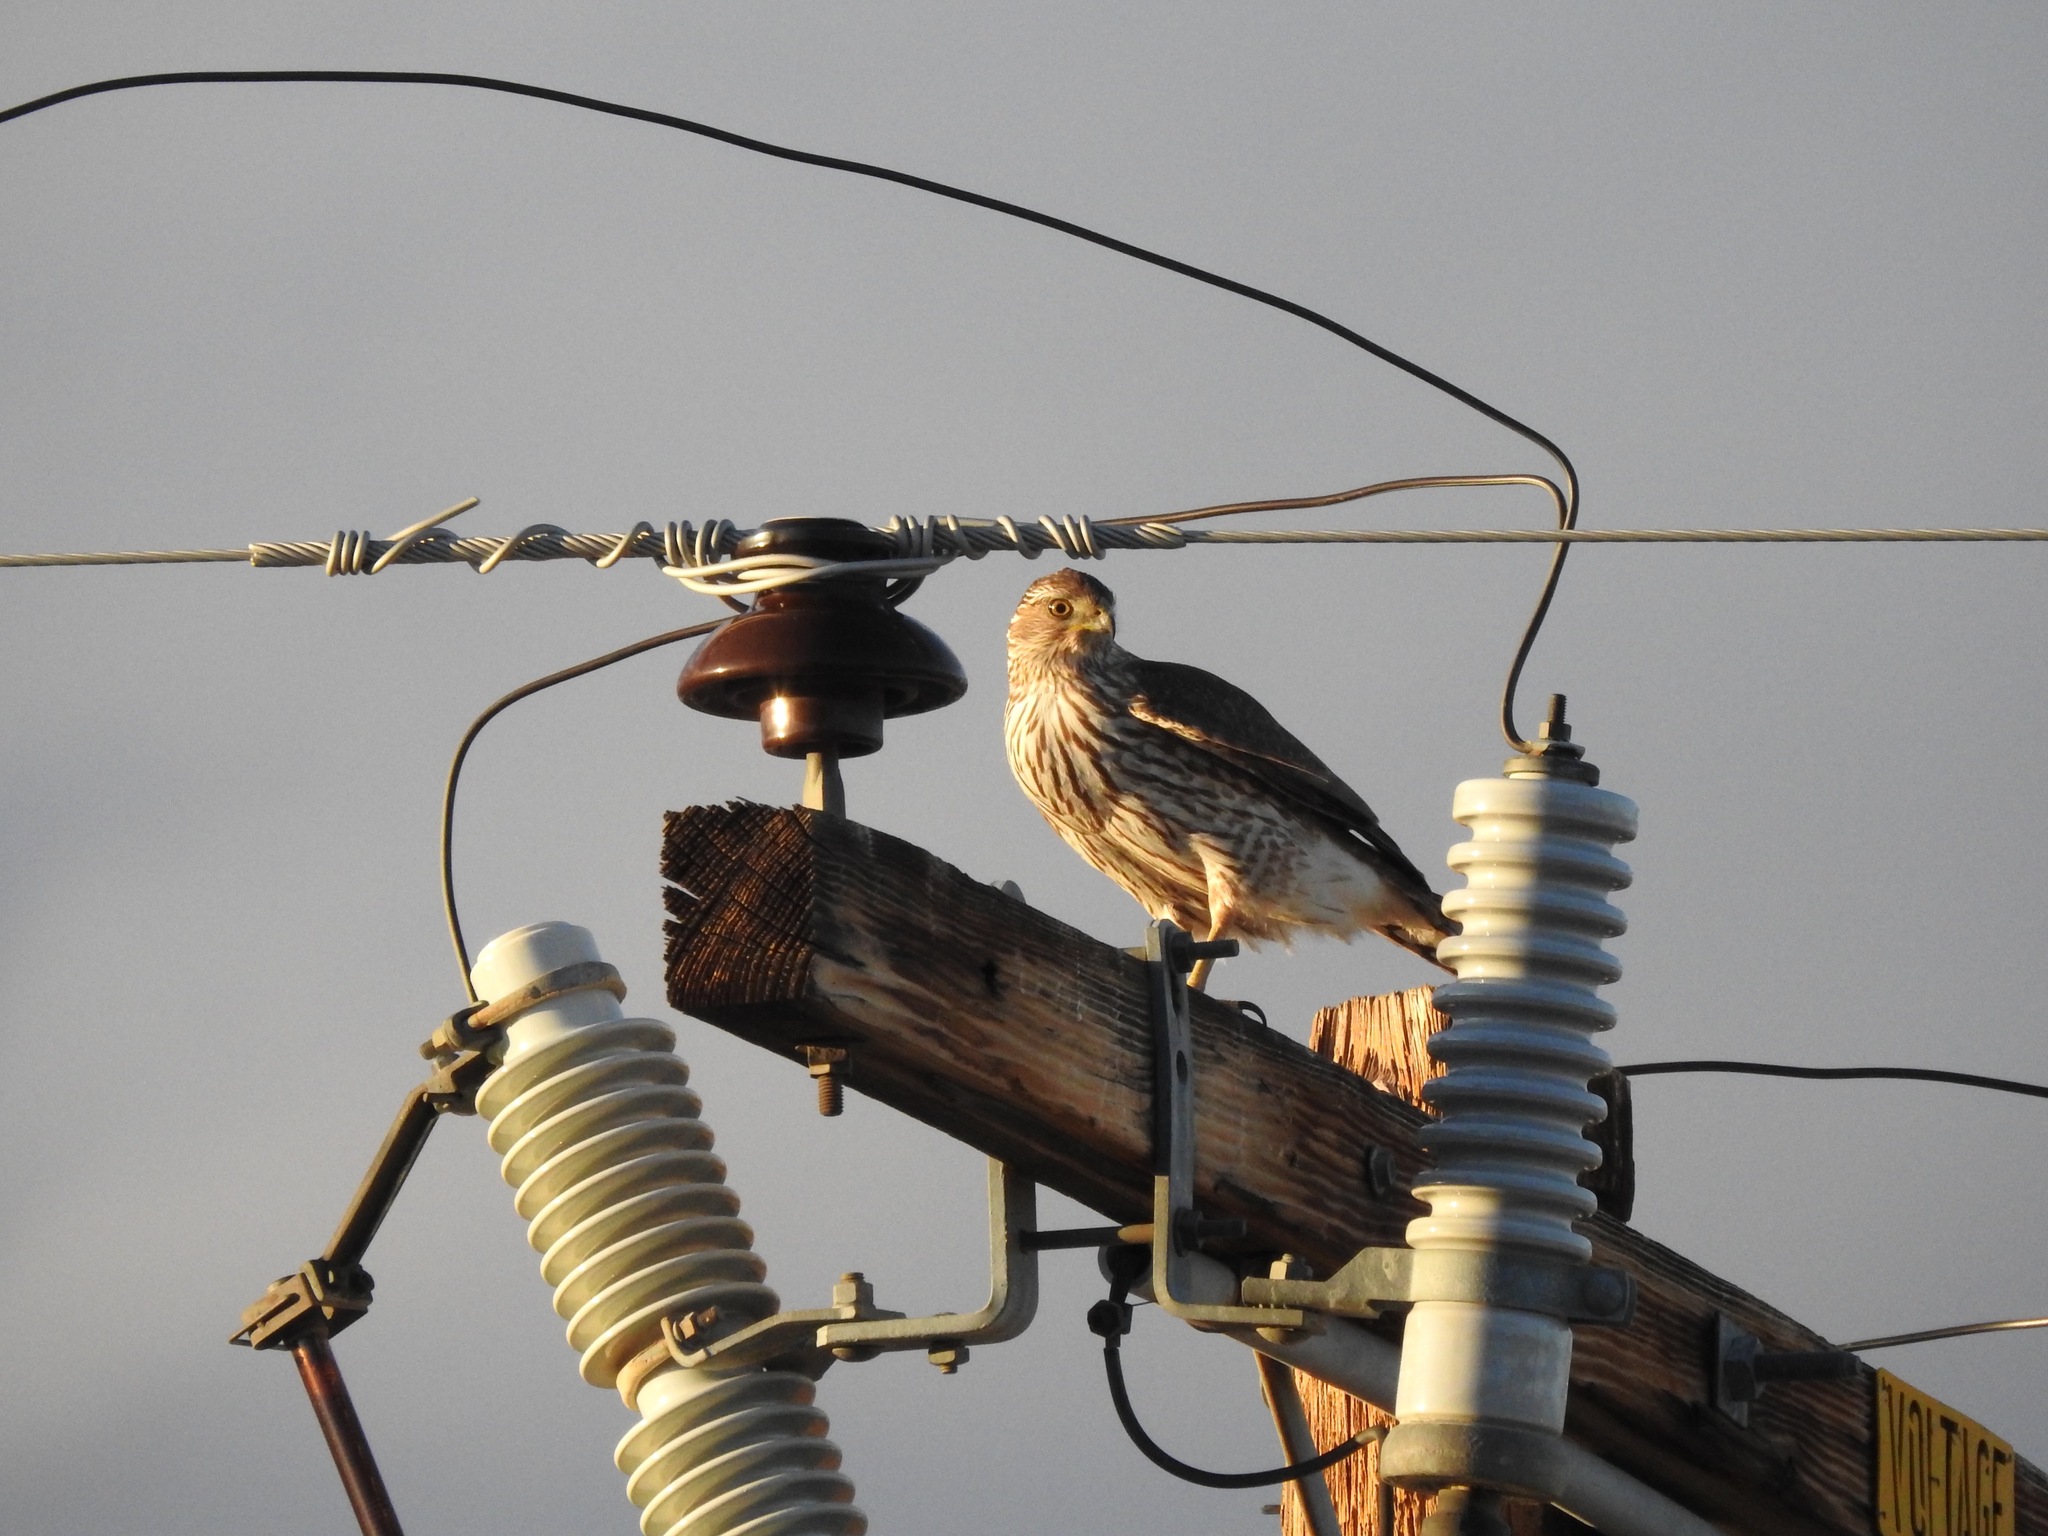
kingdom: Animalia
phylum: Chordata
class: Aves
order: Accipitriformes
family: Accipitridae
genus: Accipiter
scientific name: Accipiter cooperii
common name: Cooper's hawk
